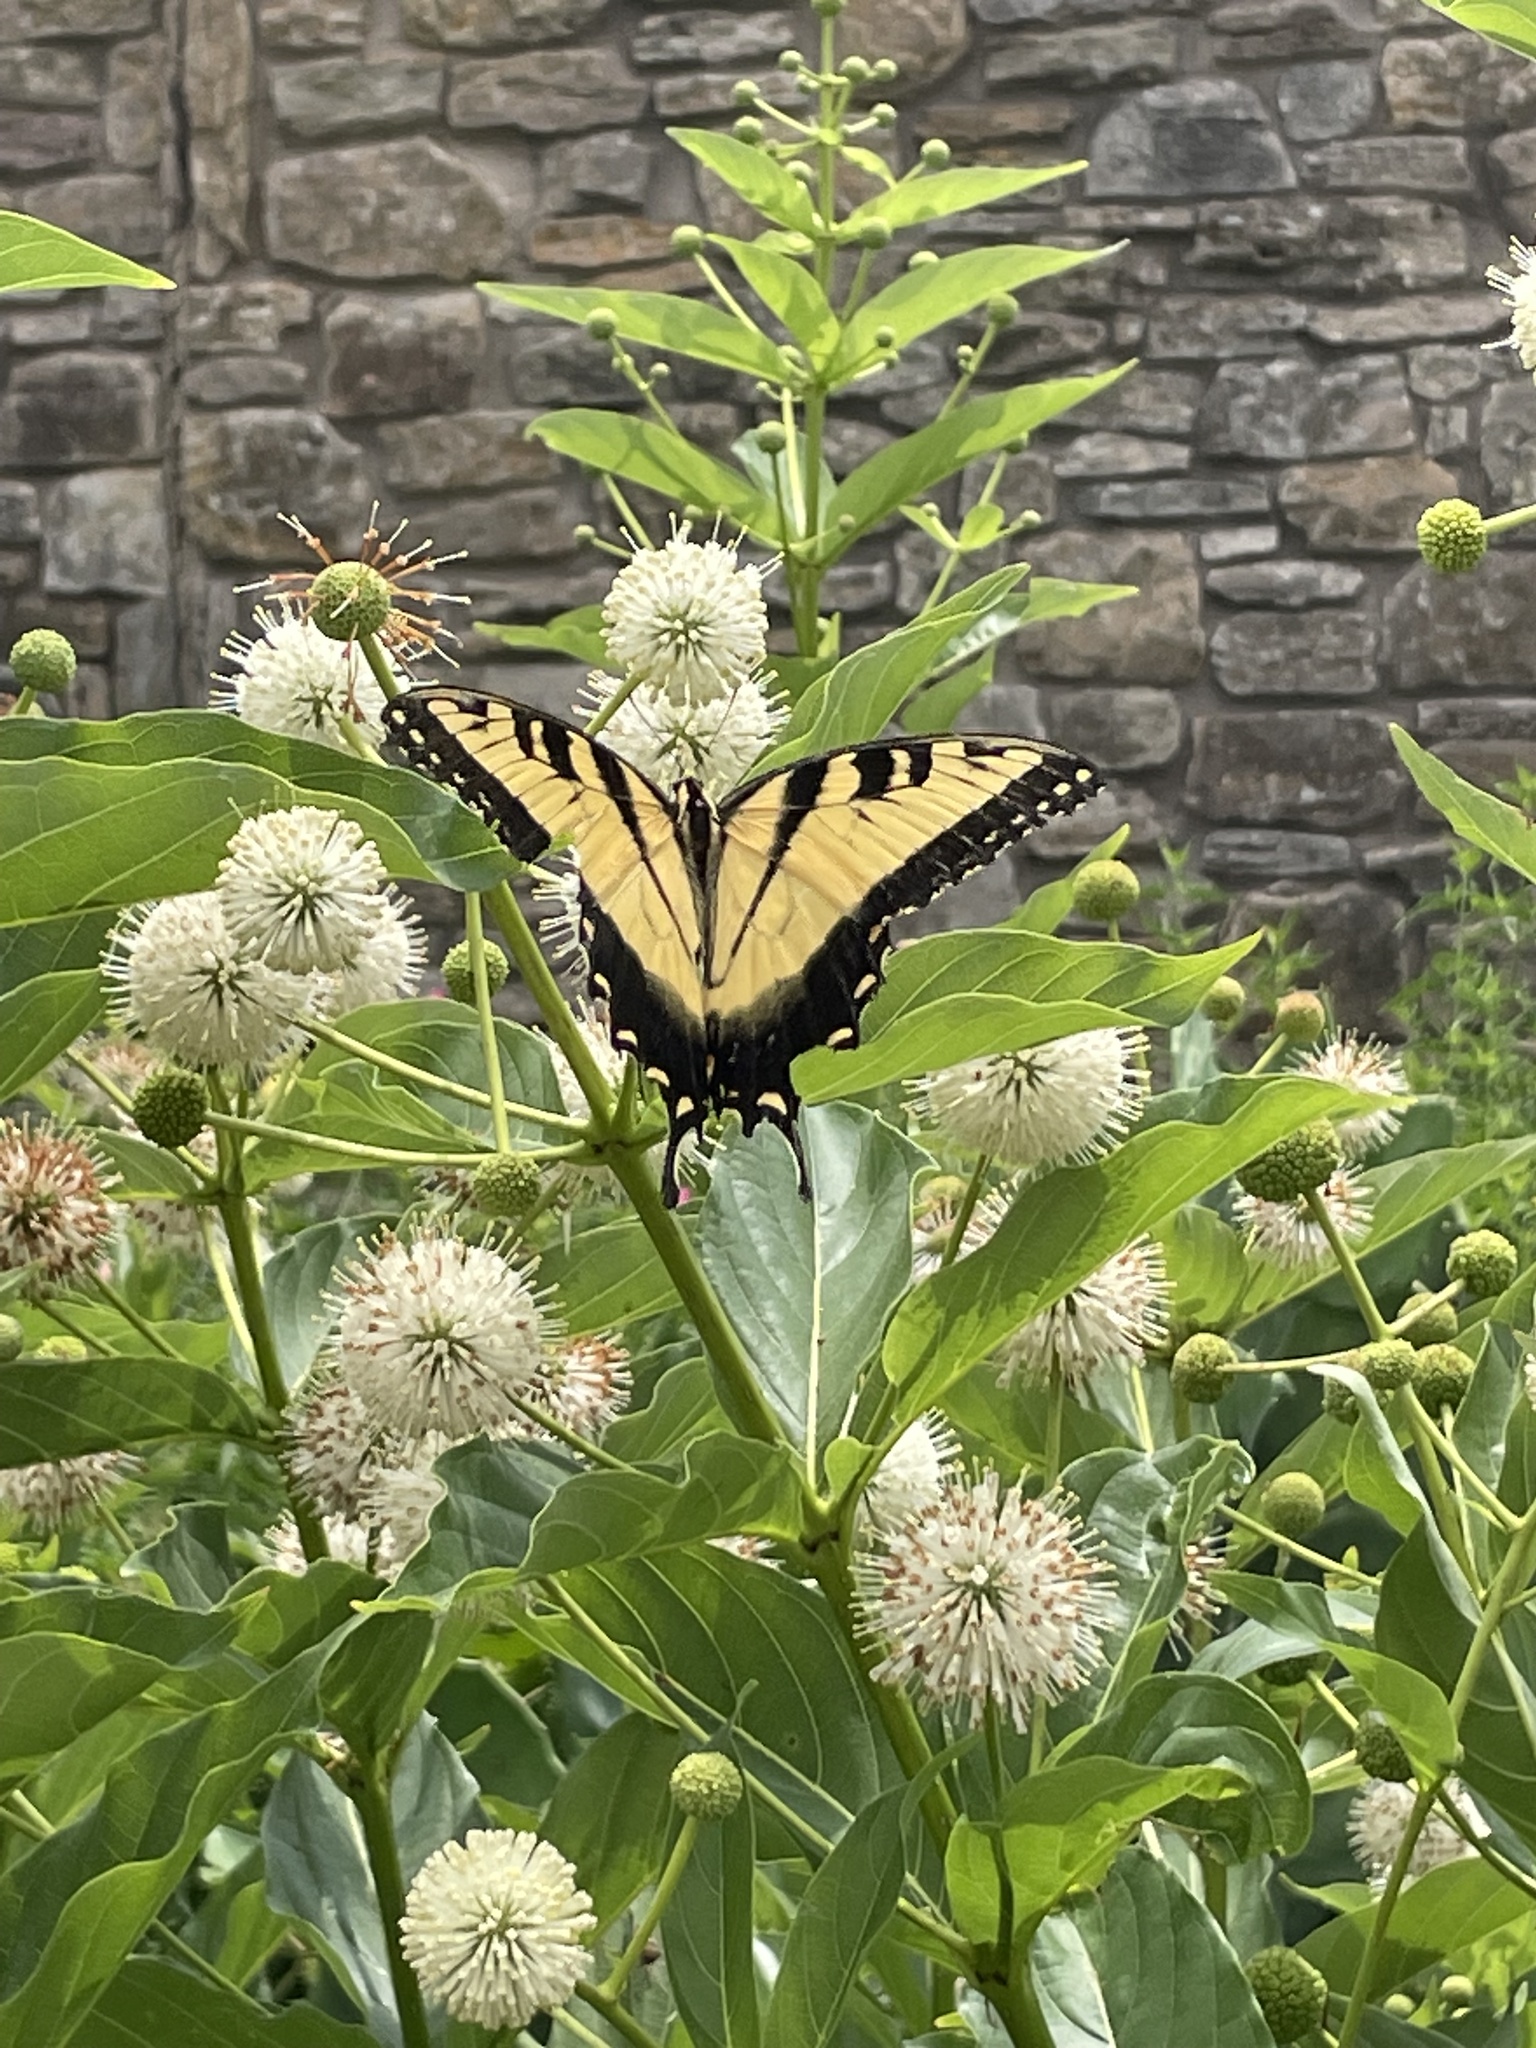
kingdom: Animalia
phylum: Arthropoda
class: Insecta
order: Lepidoptera
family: Papilionidae
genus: Papilio
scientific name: Papilio glaucus
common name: Tiger swallowtail
